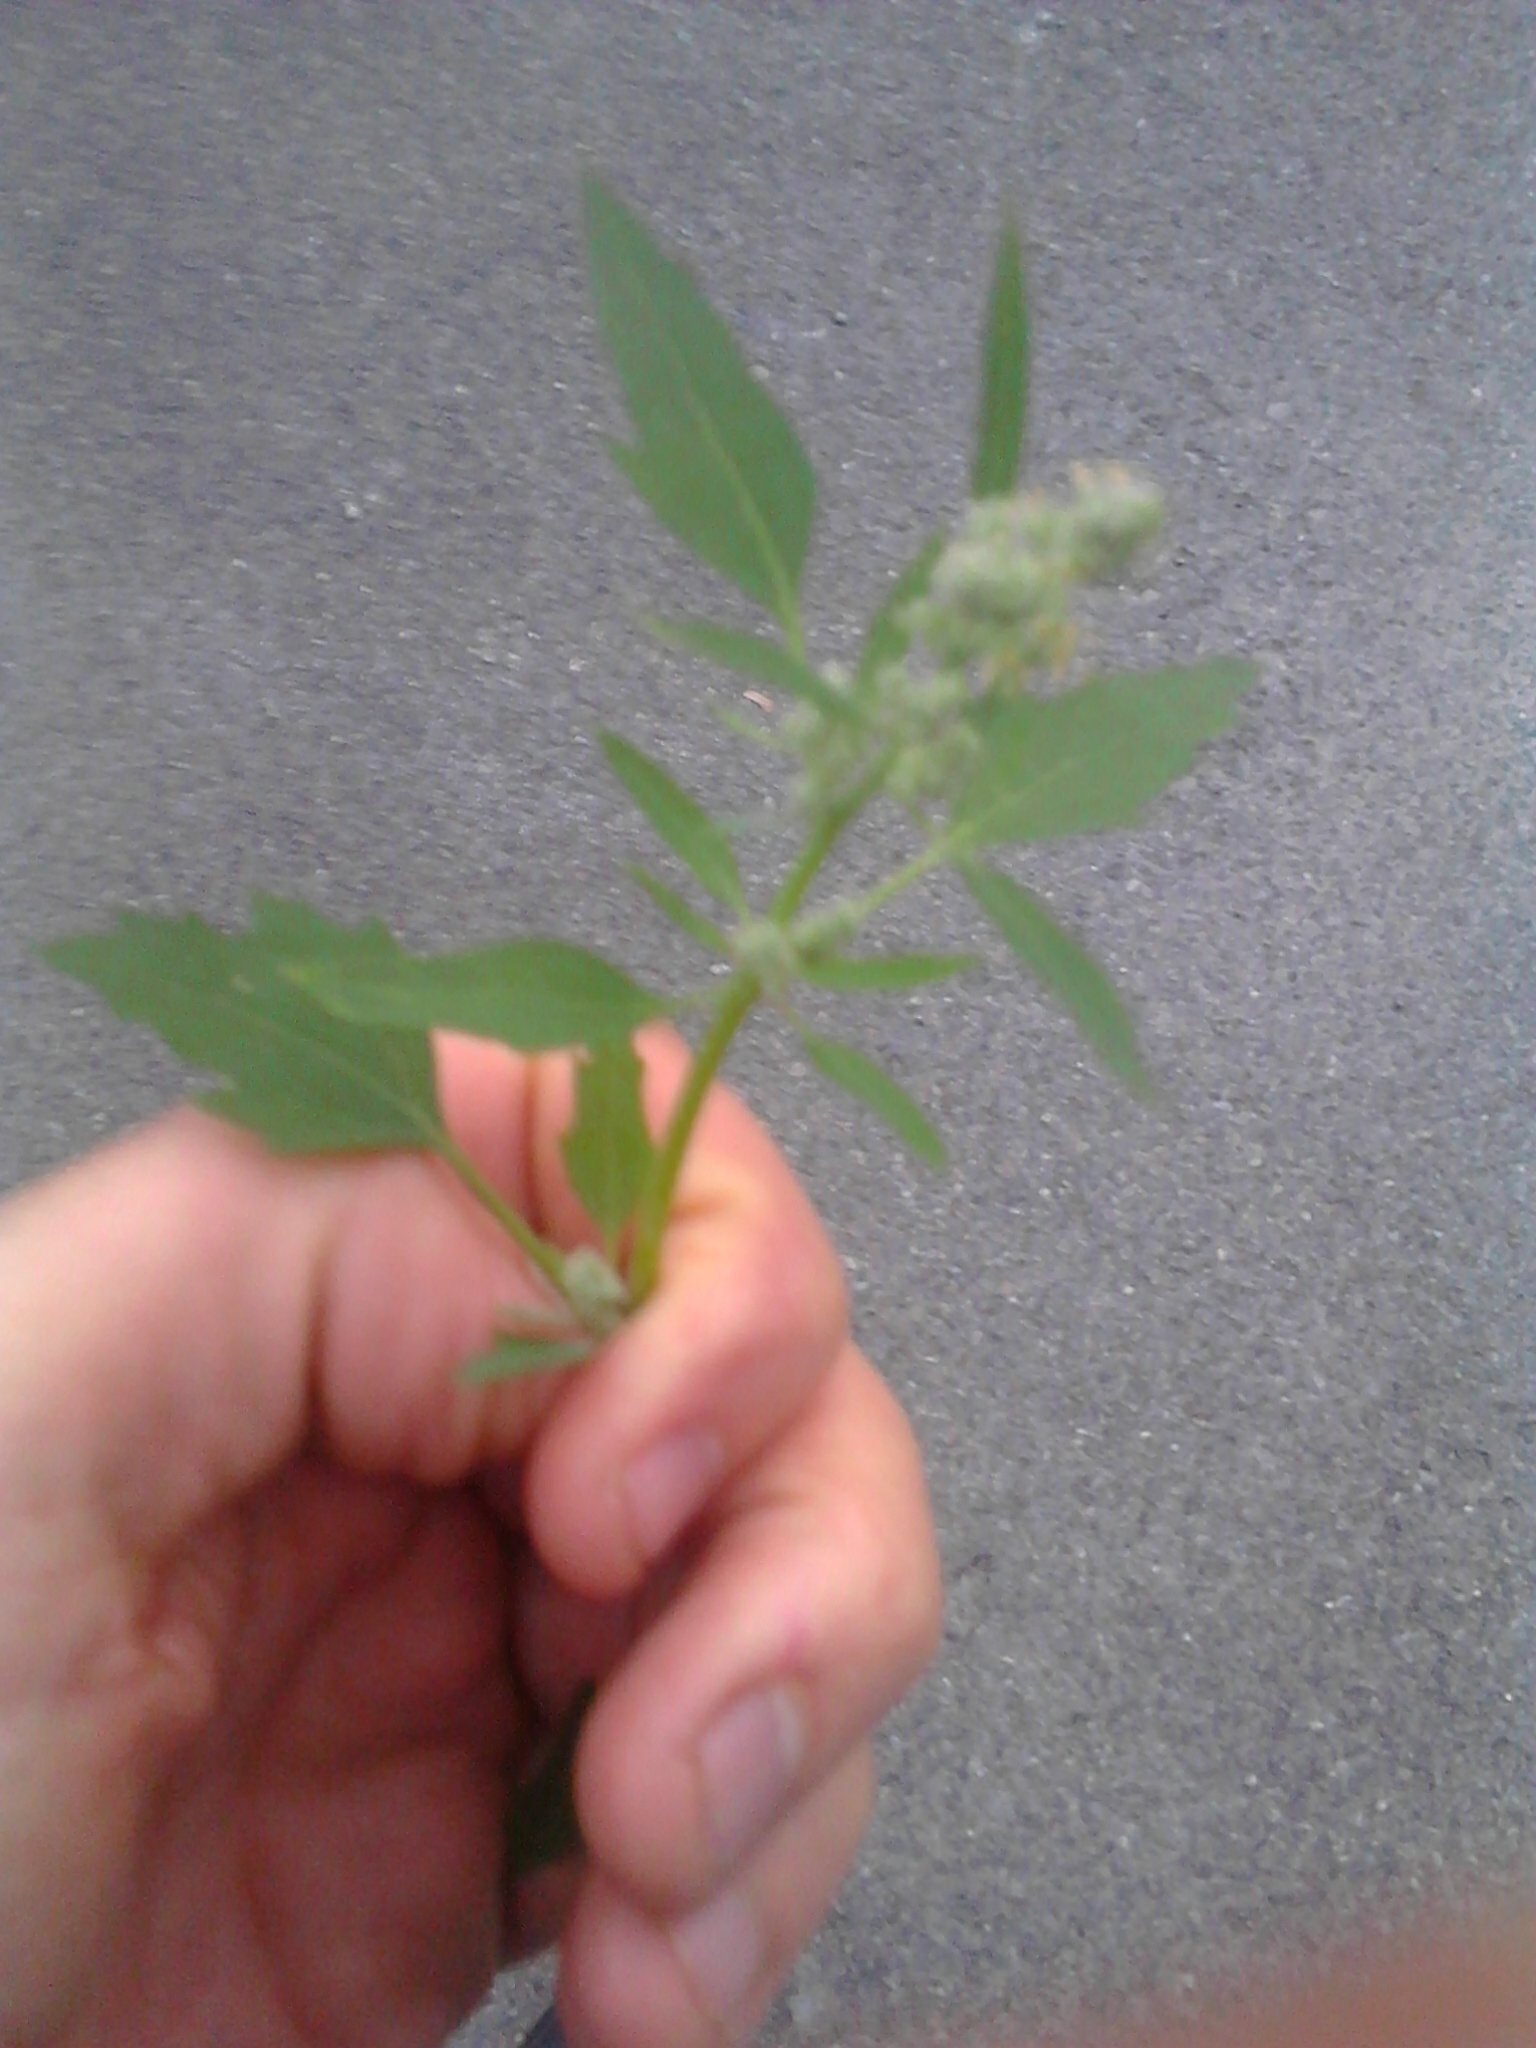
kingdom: Plantae
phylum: Tracheophyta
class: Magnoliopsida
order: Caryophyllales
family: Amaranthaceae
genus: Chenopodium
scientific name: Chenopodium album
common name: Fat-hen
